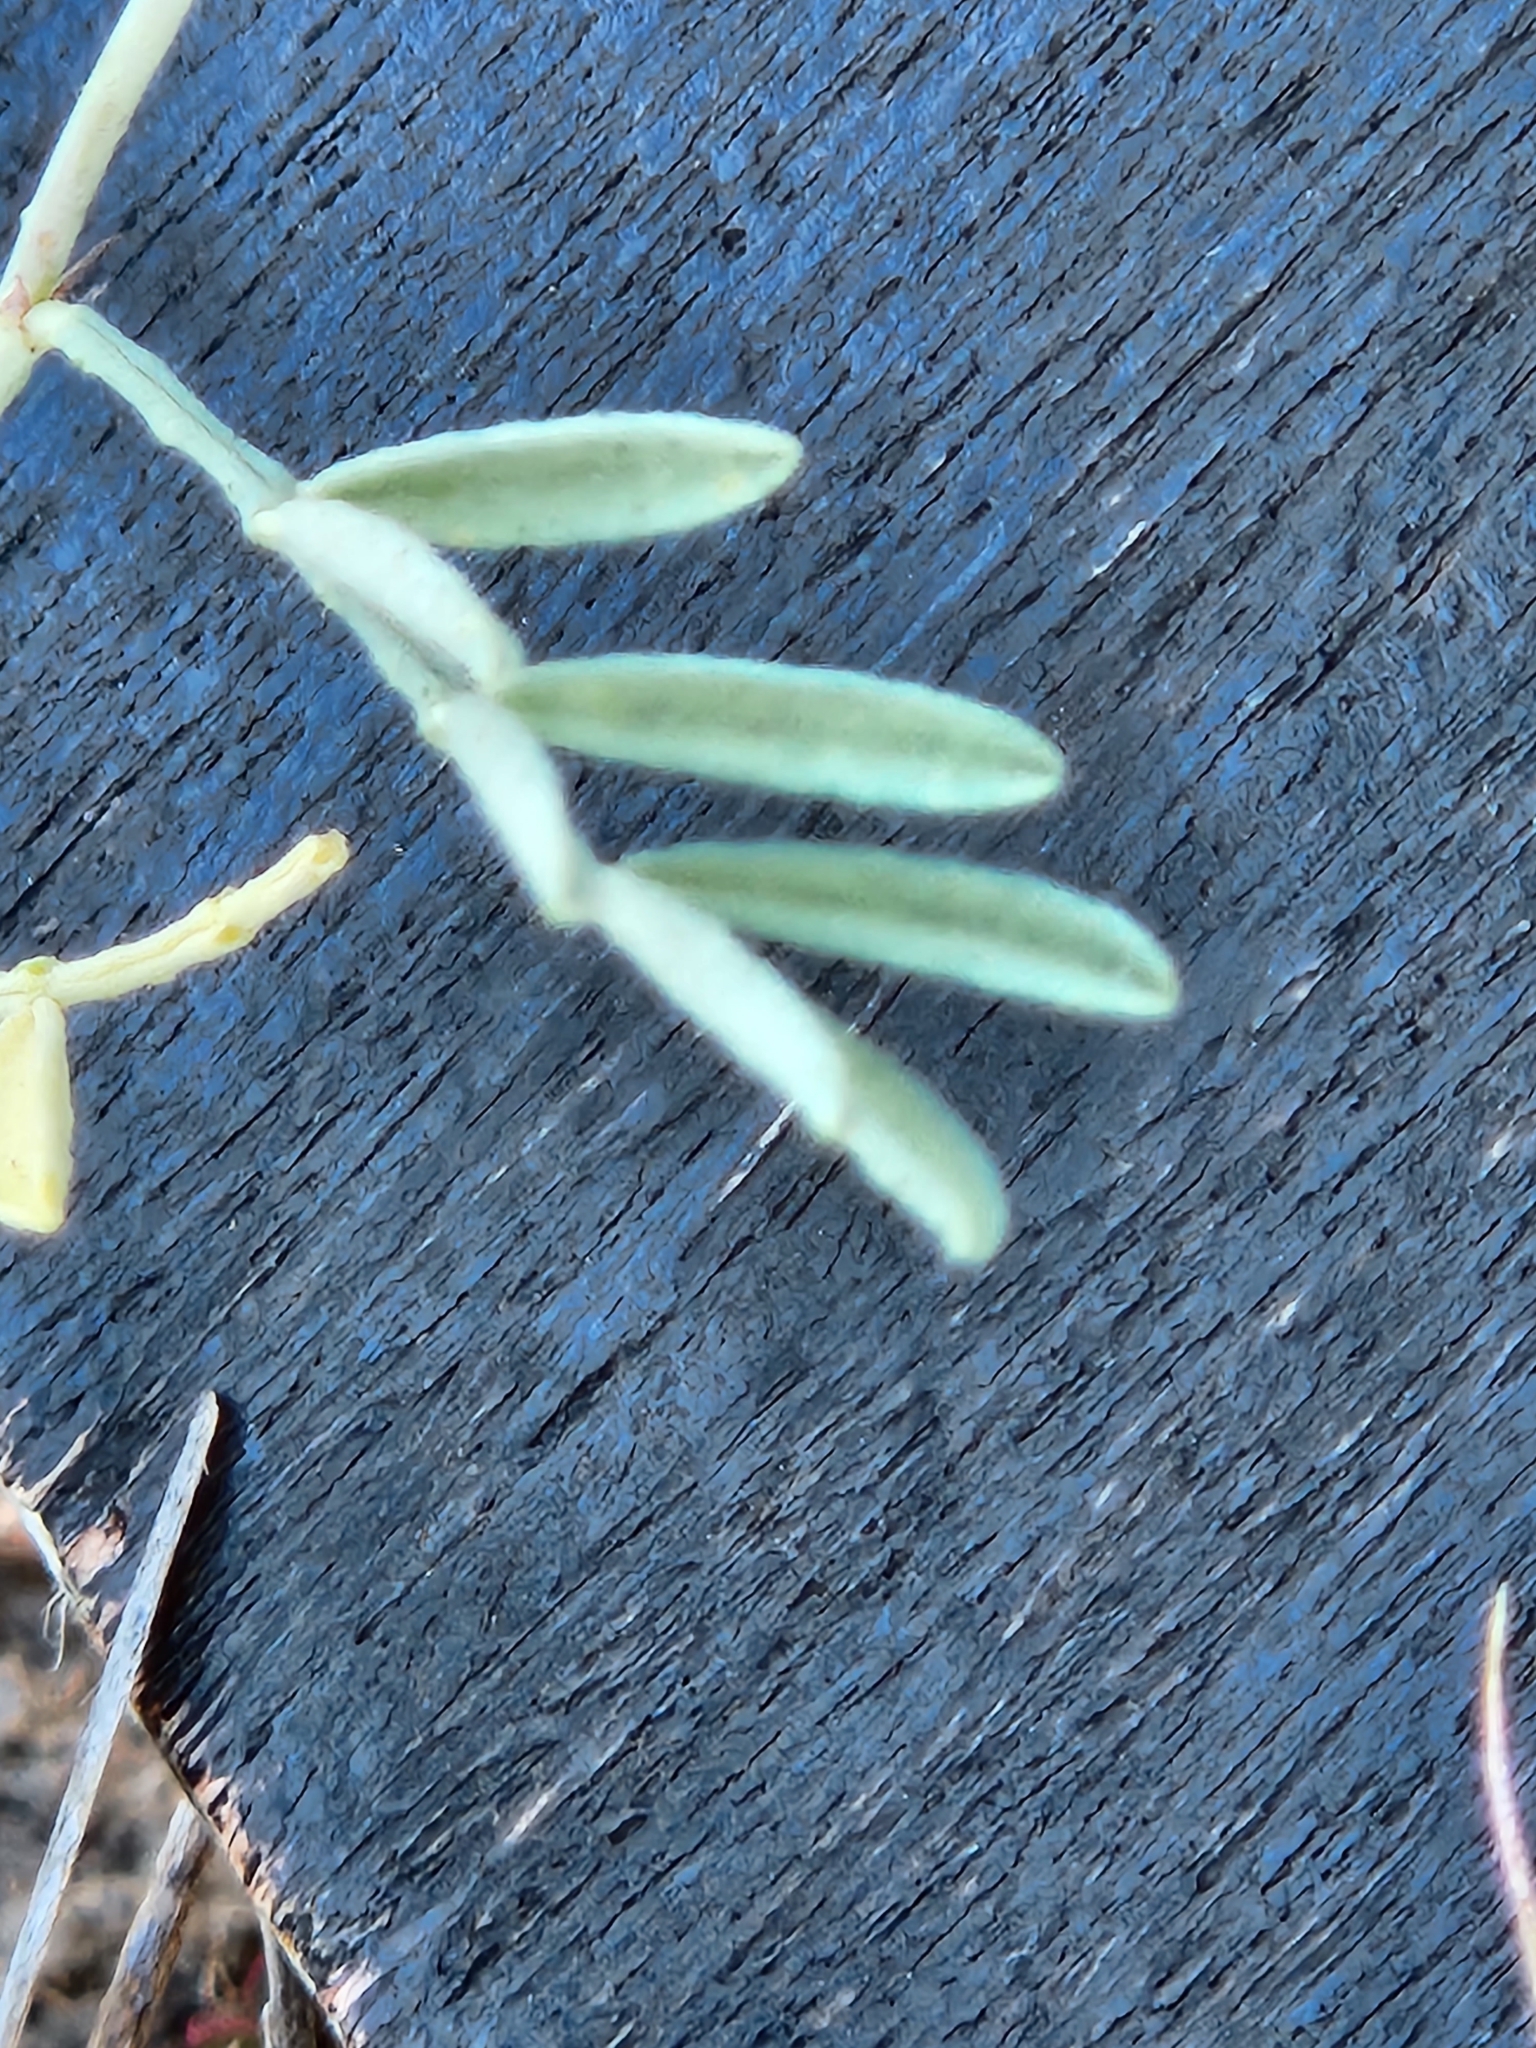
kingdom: Plantae
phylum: Tracheophyta
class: Magnoliopsida
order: Fabales
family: Fabaceae
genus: Dalea
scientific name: Dalea pogonathera
